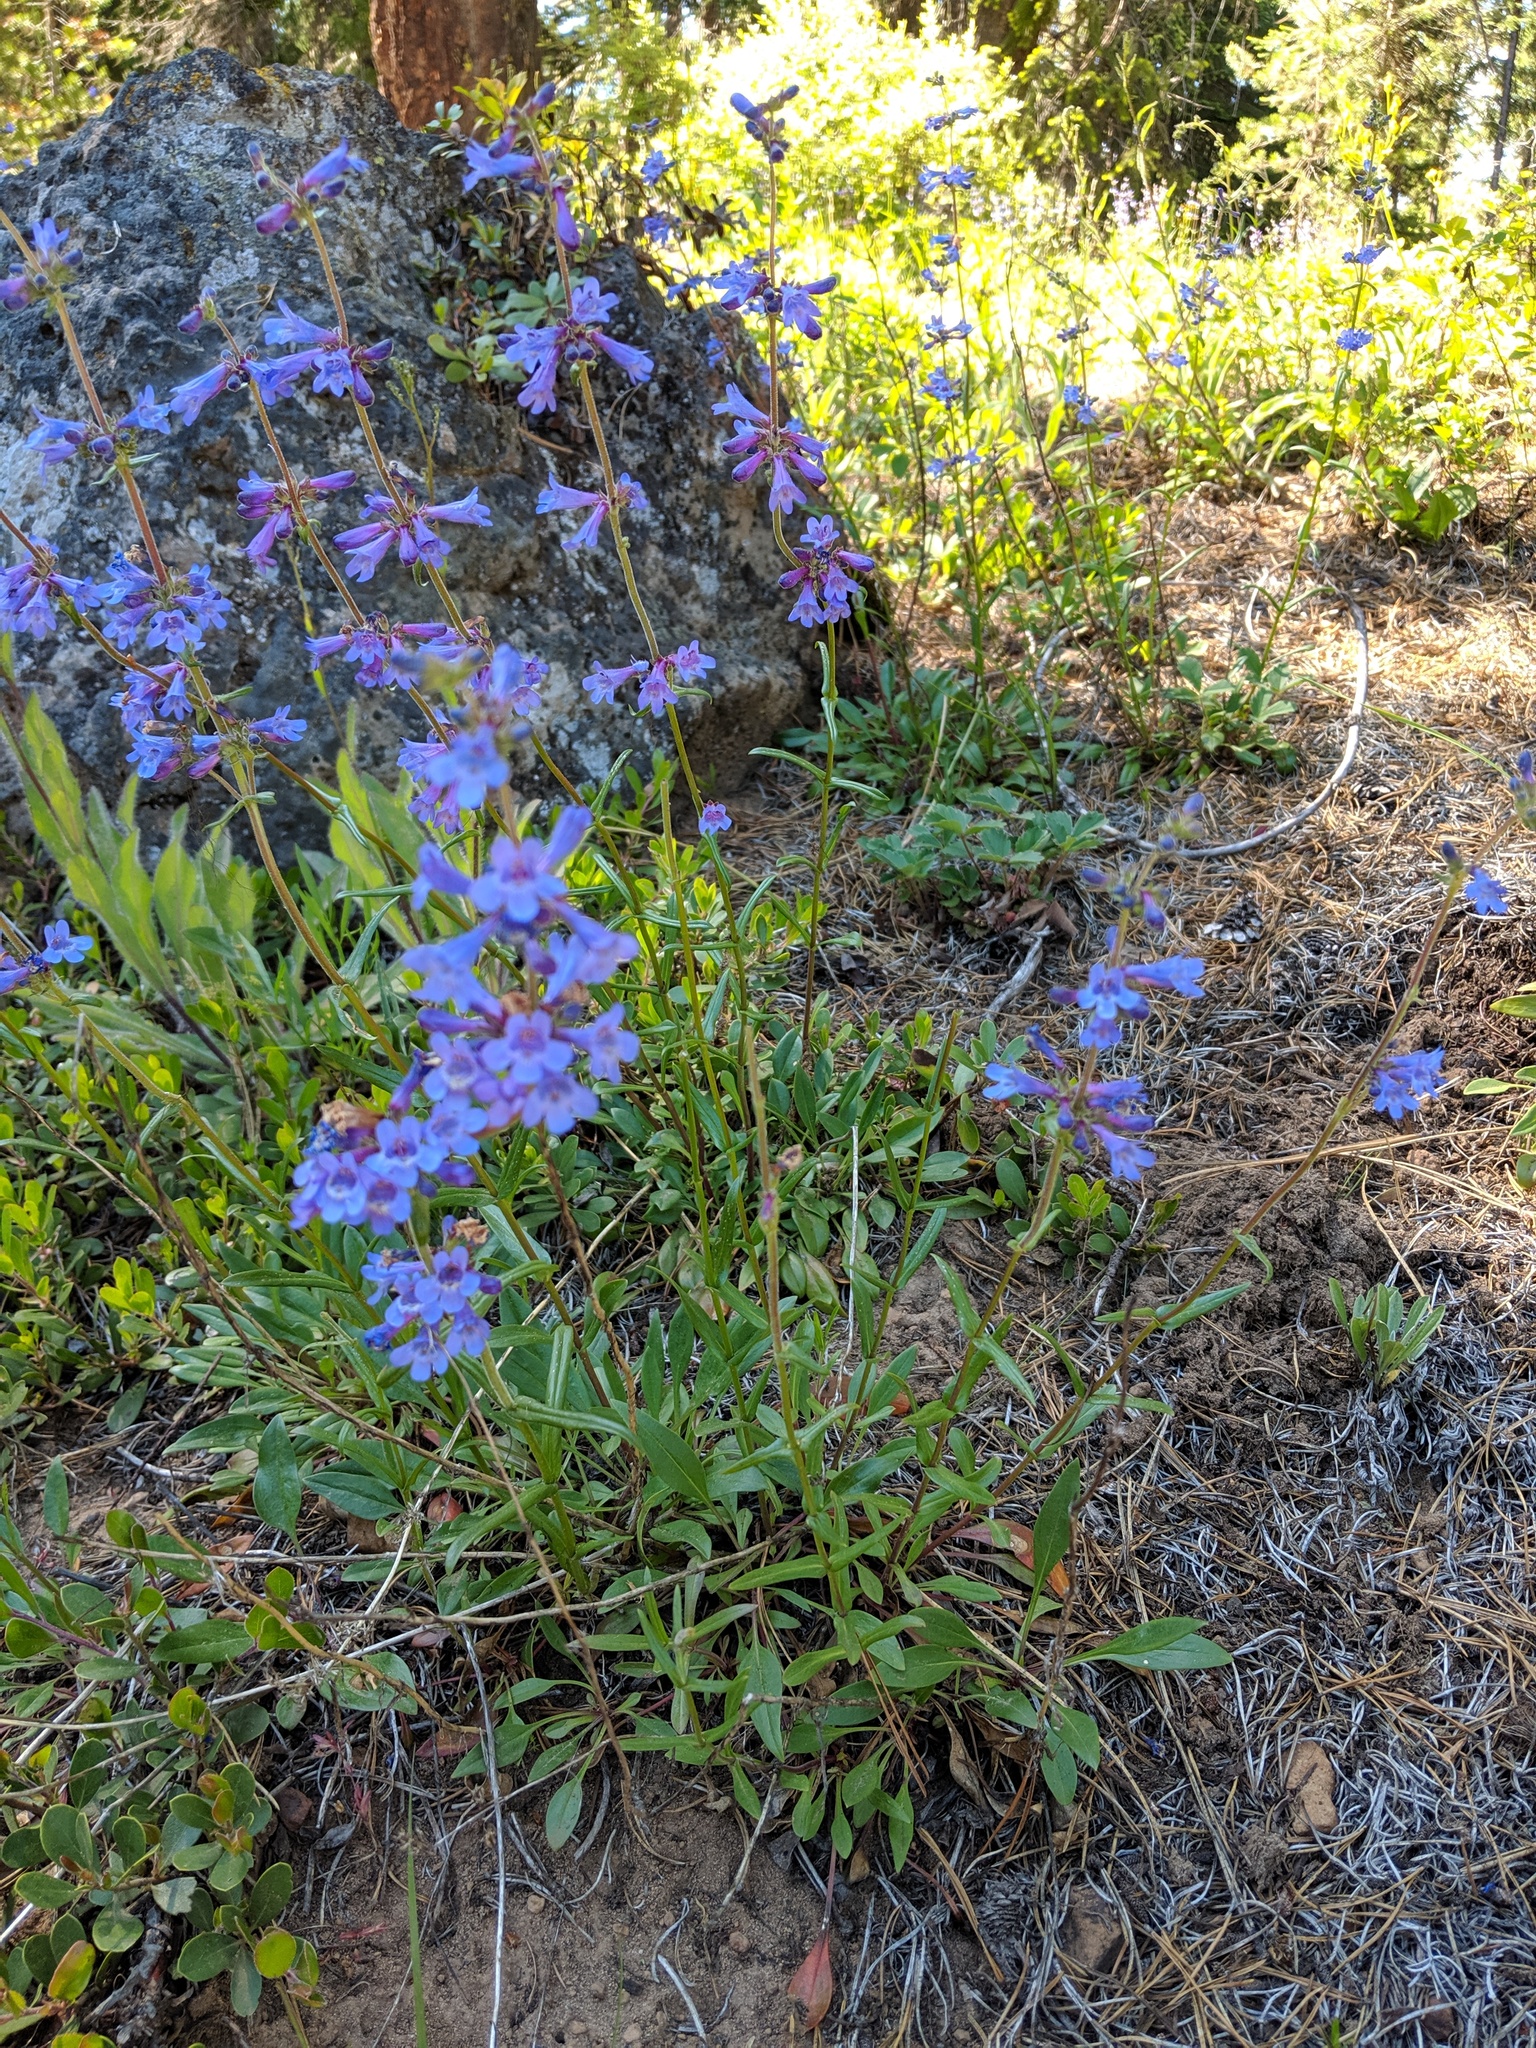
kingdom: Plantae
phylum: Tracheophyta
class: Magnoliopsida
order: Lamiales
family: Plantaginaceae
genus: Penstemon
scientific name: Penstemon attenuatus
